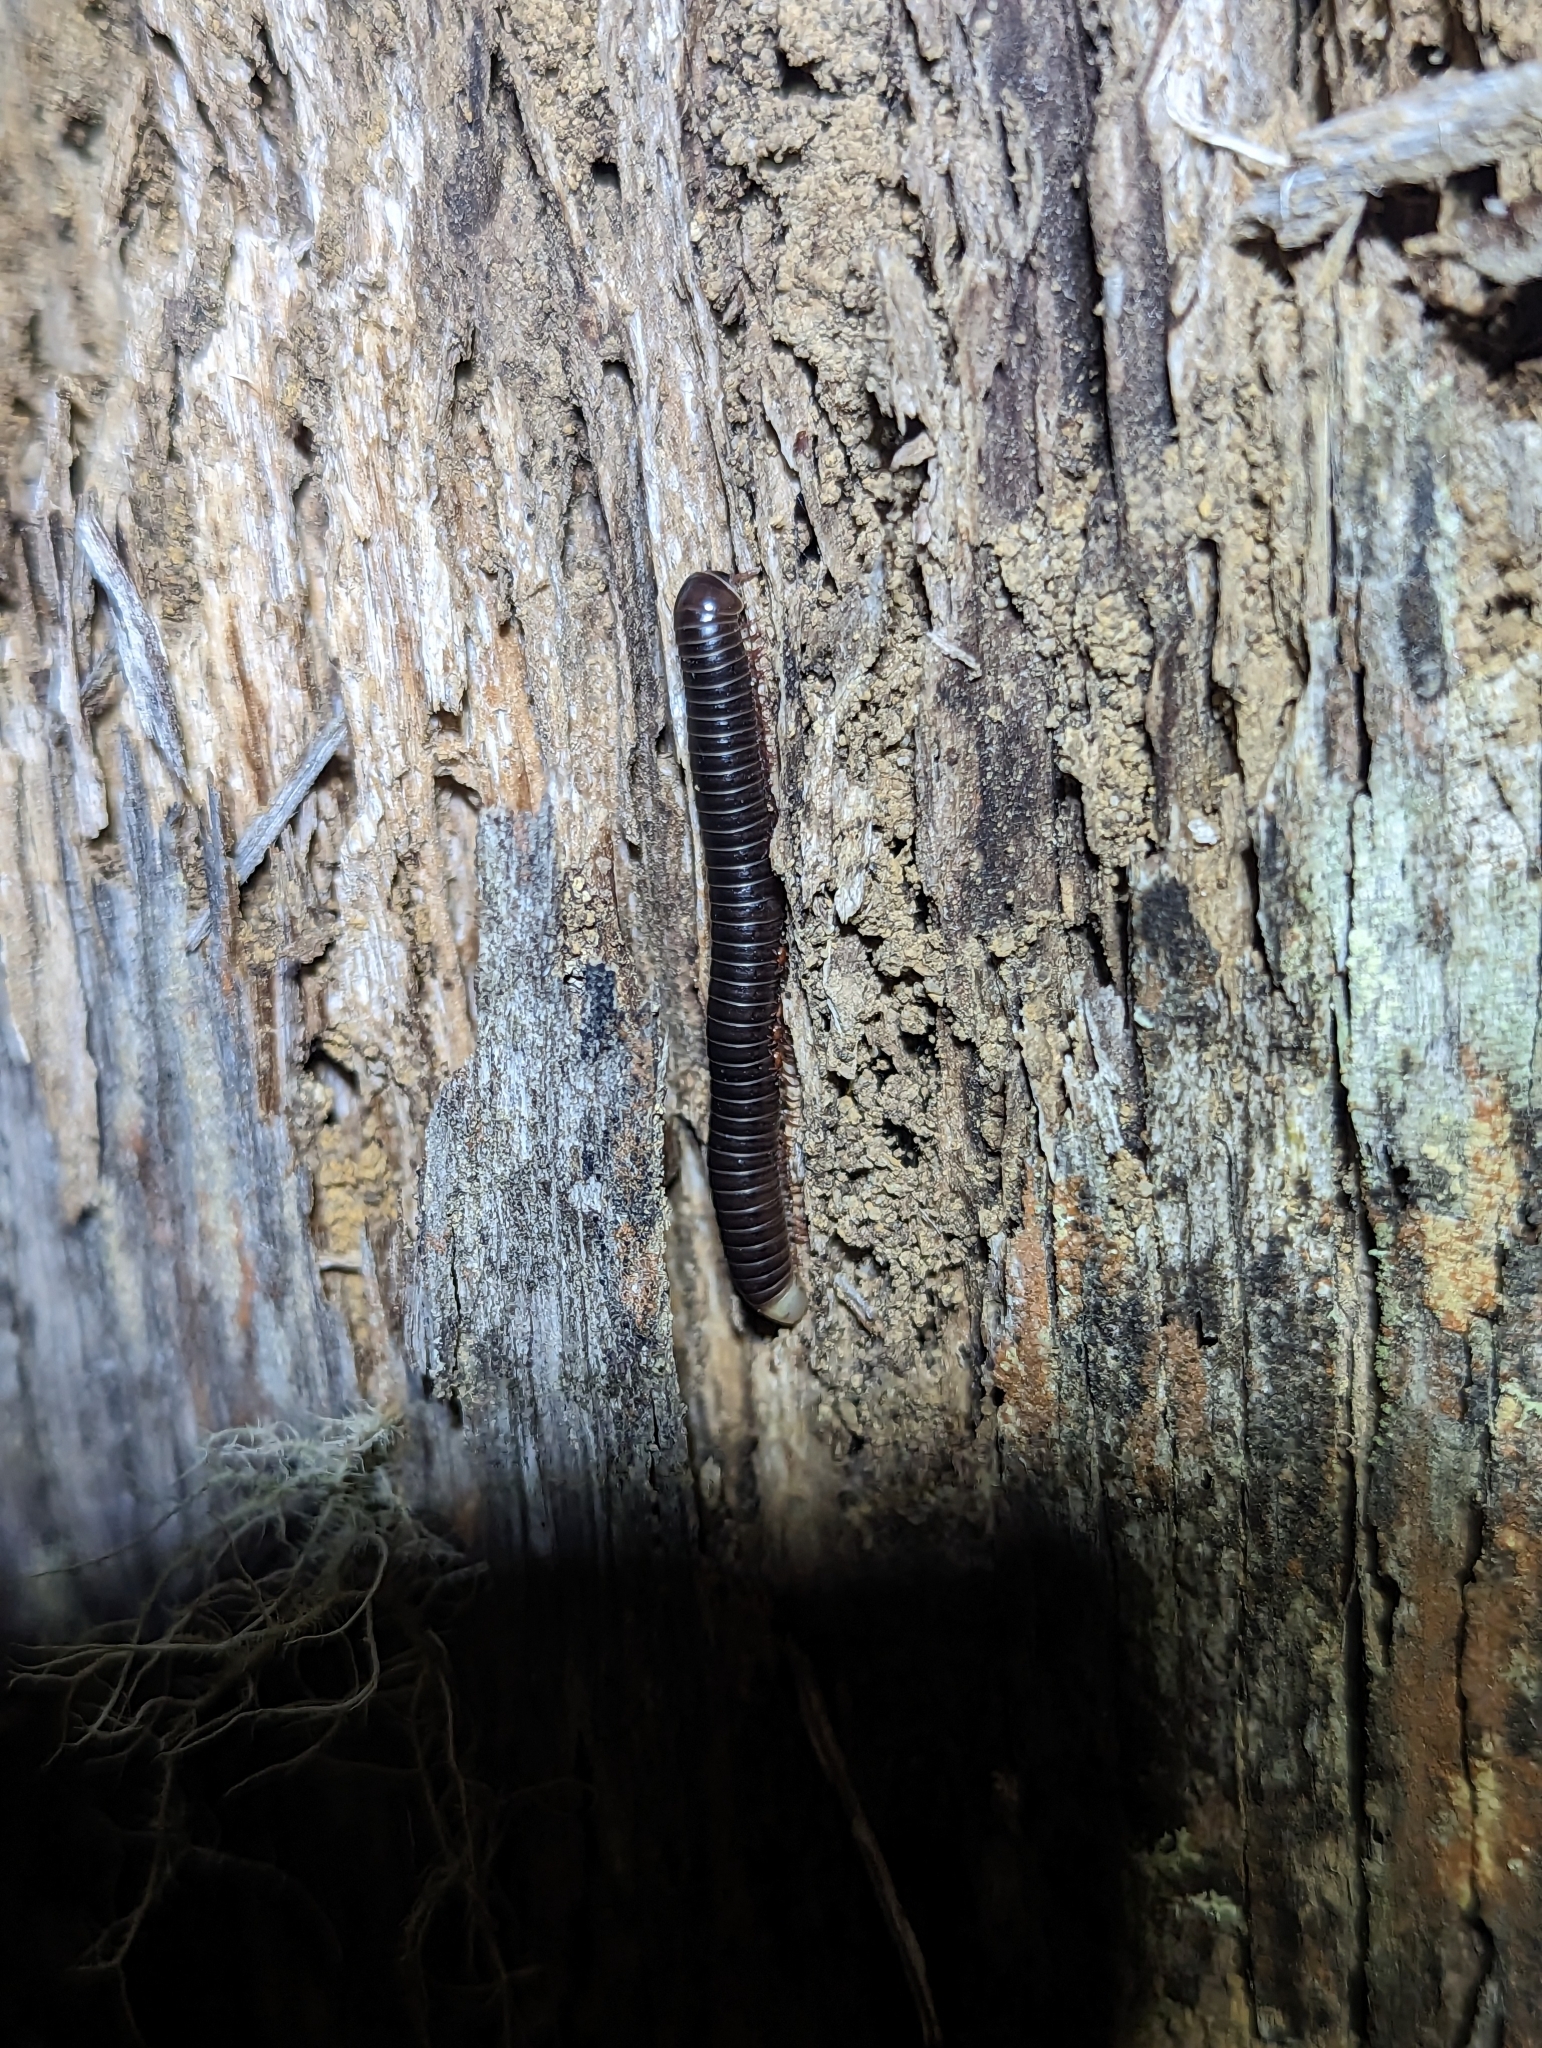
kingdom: Animalia
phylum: Arthropoda
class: Diplopoda
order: Julida
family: Julidae
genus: Ommatoiulus
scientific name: Ommatoiulus moreleti
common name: Portuguese millipede
